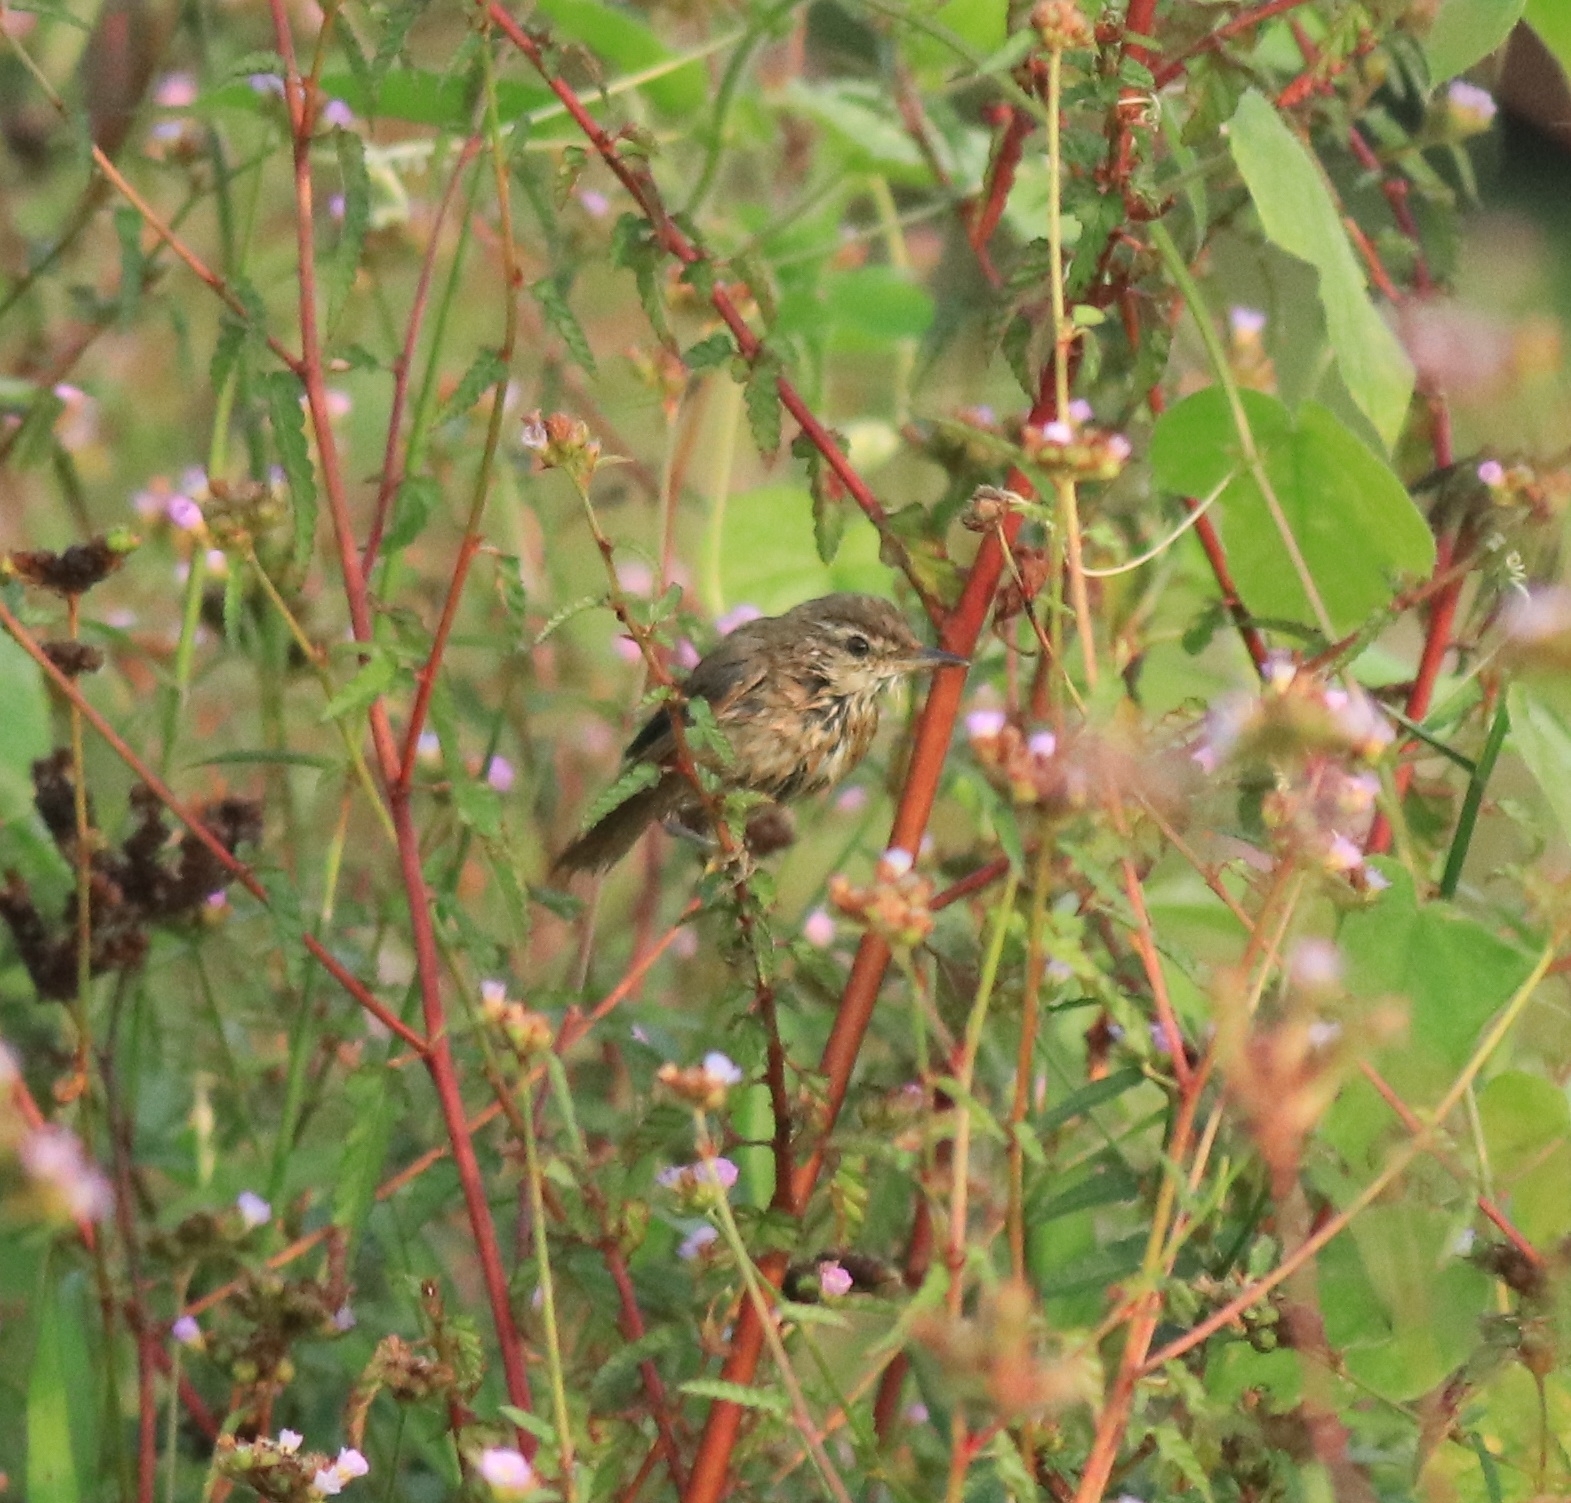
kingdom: Animalia
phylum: Chordata
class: Aves
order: Passeriformes
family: Acrocephalidae
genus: Acrocephalus
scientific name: Acrocephalus agricola
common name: Paddyfield warbler
